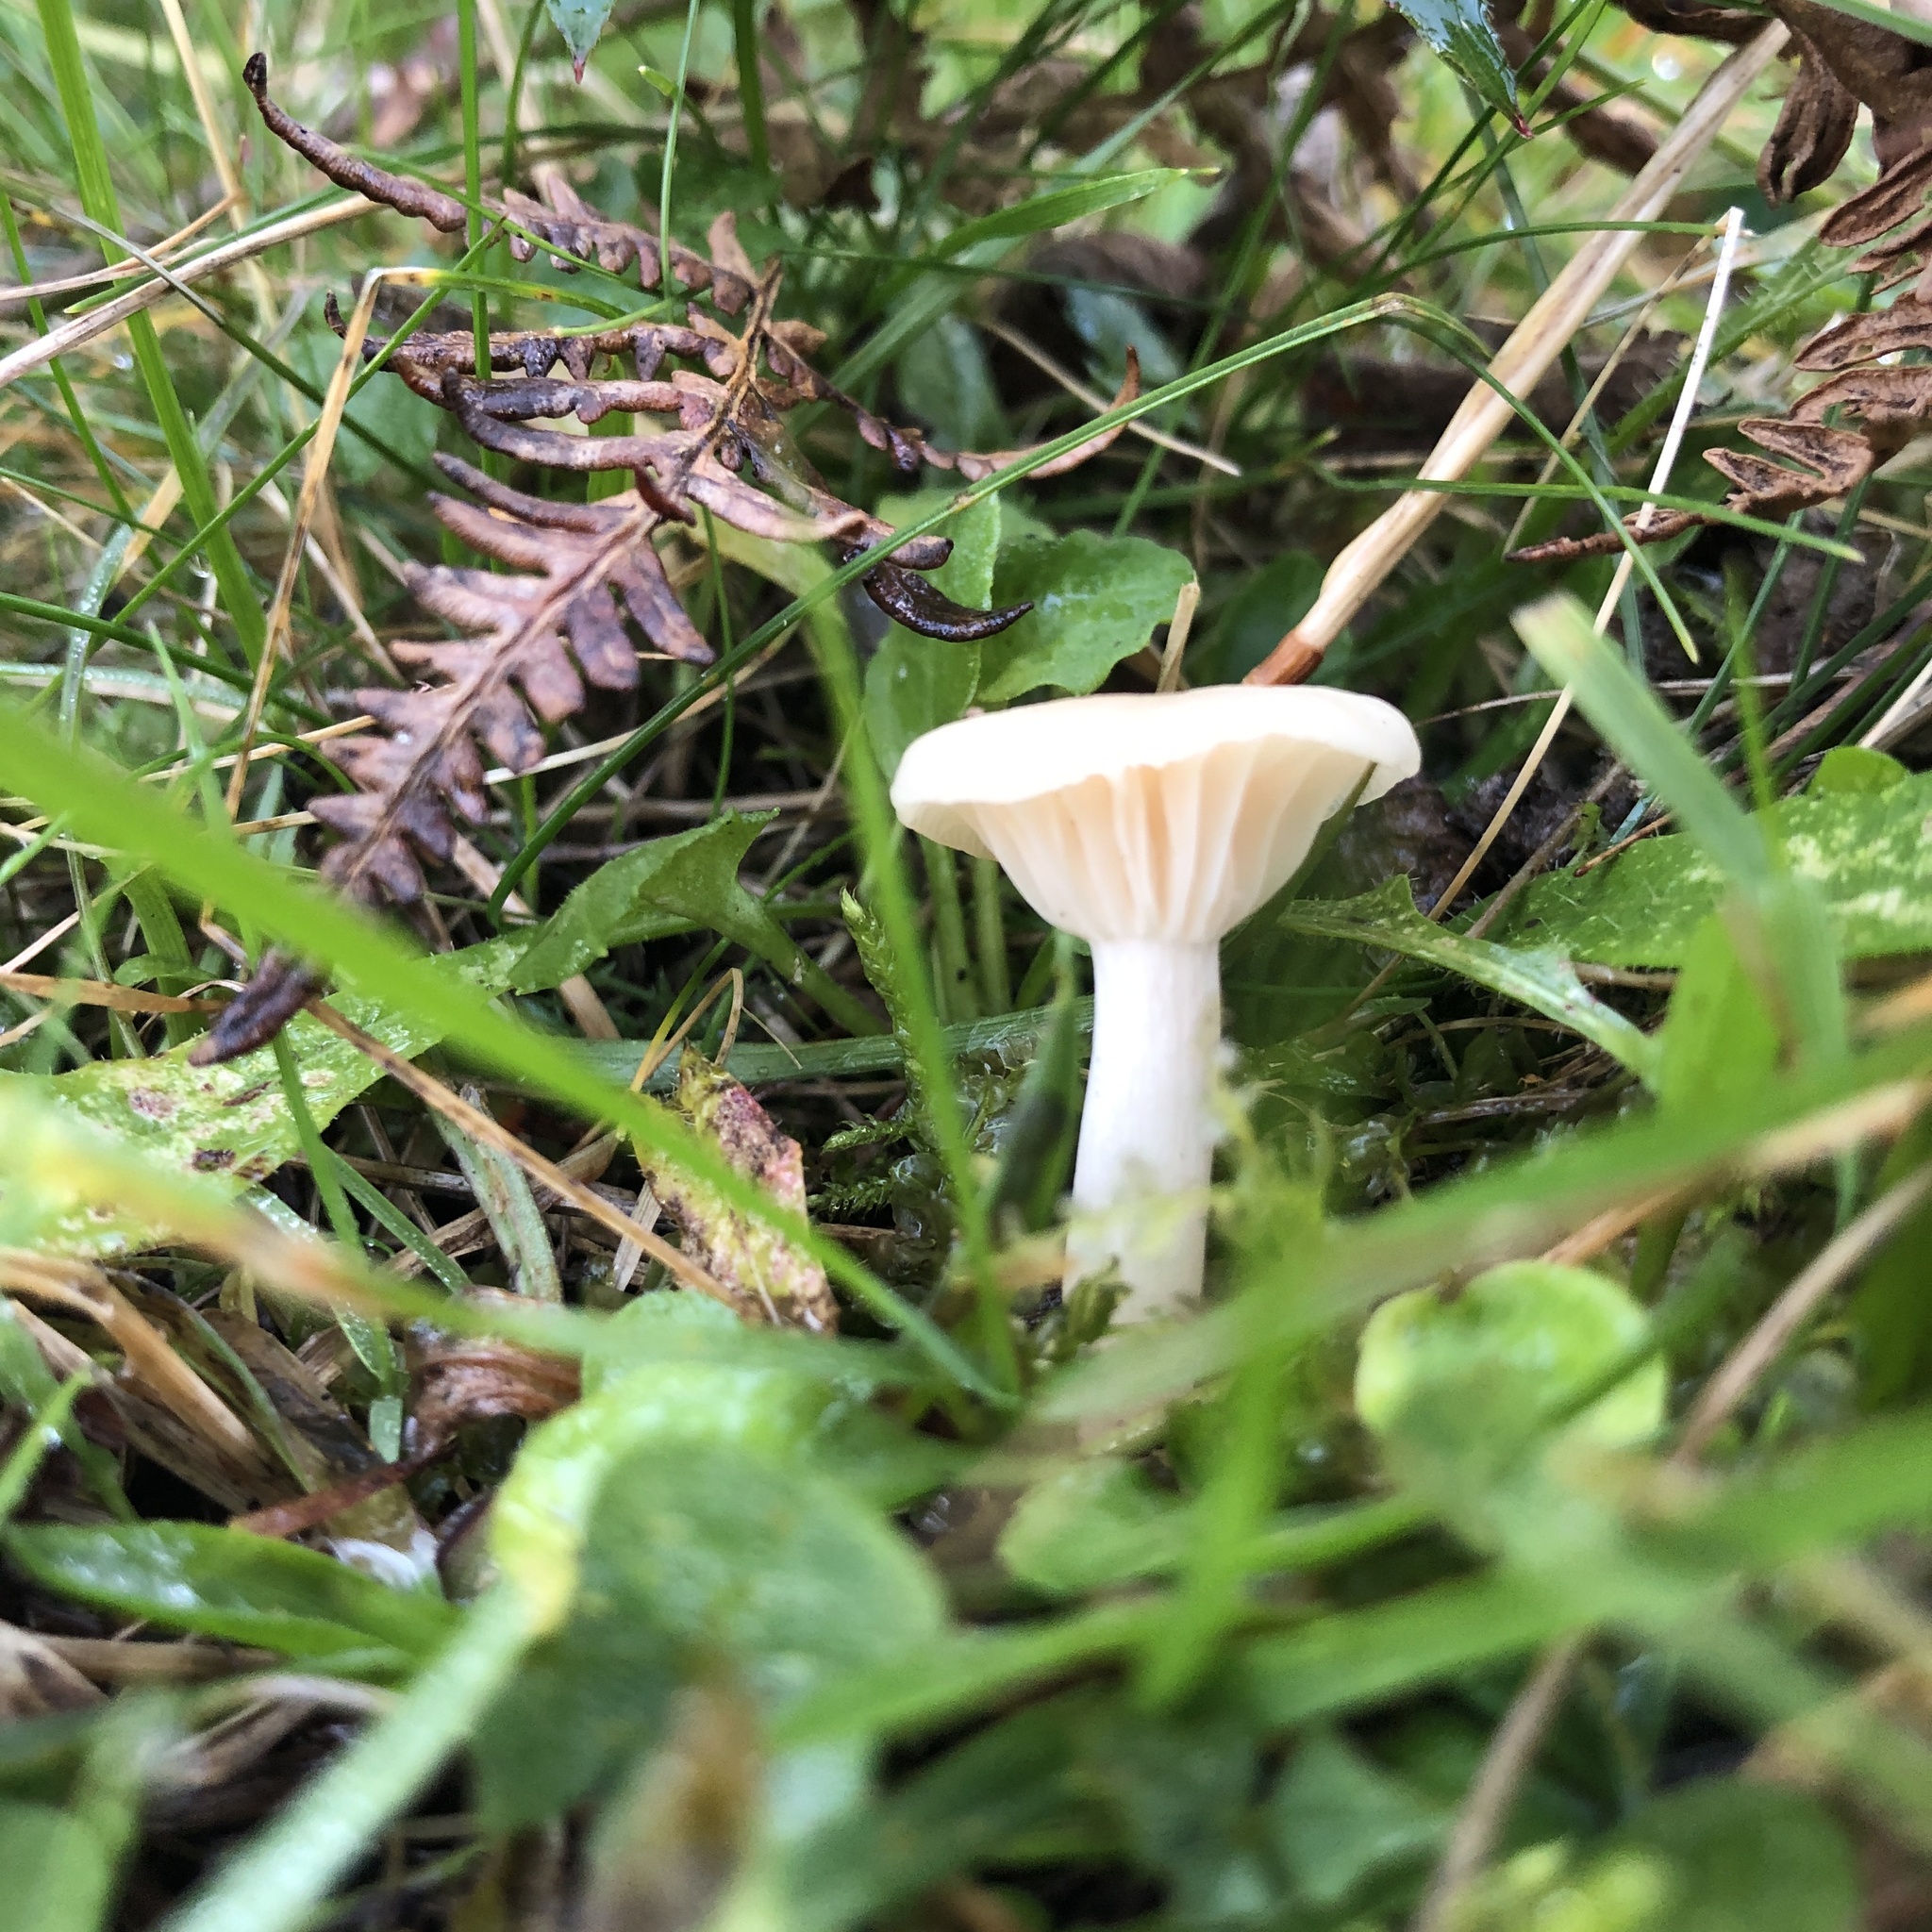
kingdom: Fungi
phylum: Basidiomycota
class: Agaricomycetes
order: Agaricales
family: Hygrophoraceae
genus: Cuphophyllus
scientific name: Cuphophyllus virgineus
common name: Snowy waxcap
